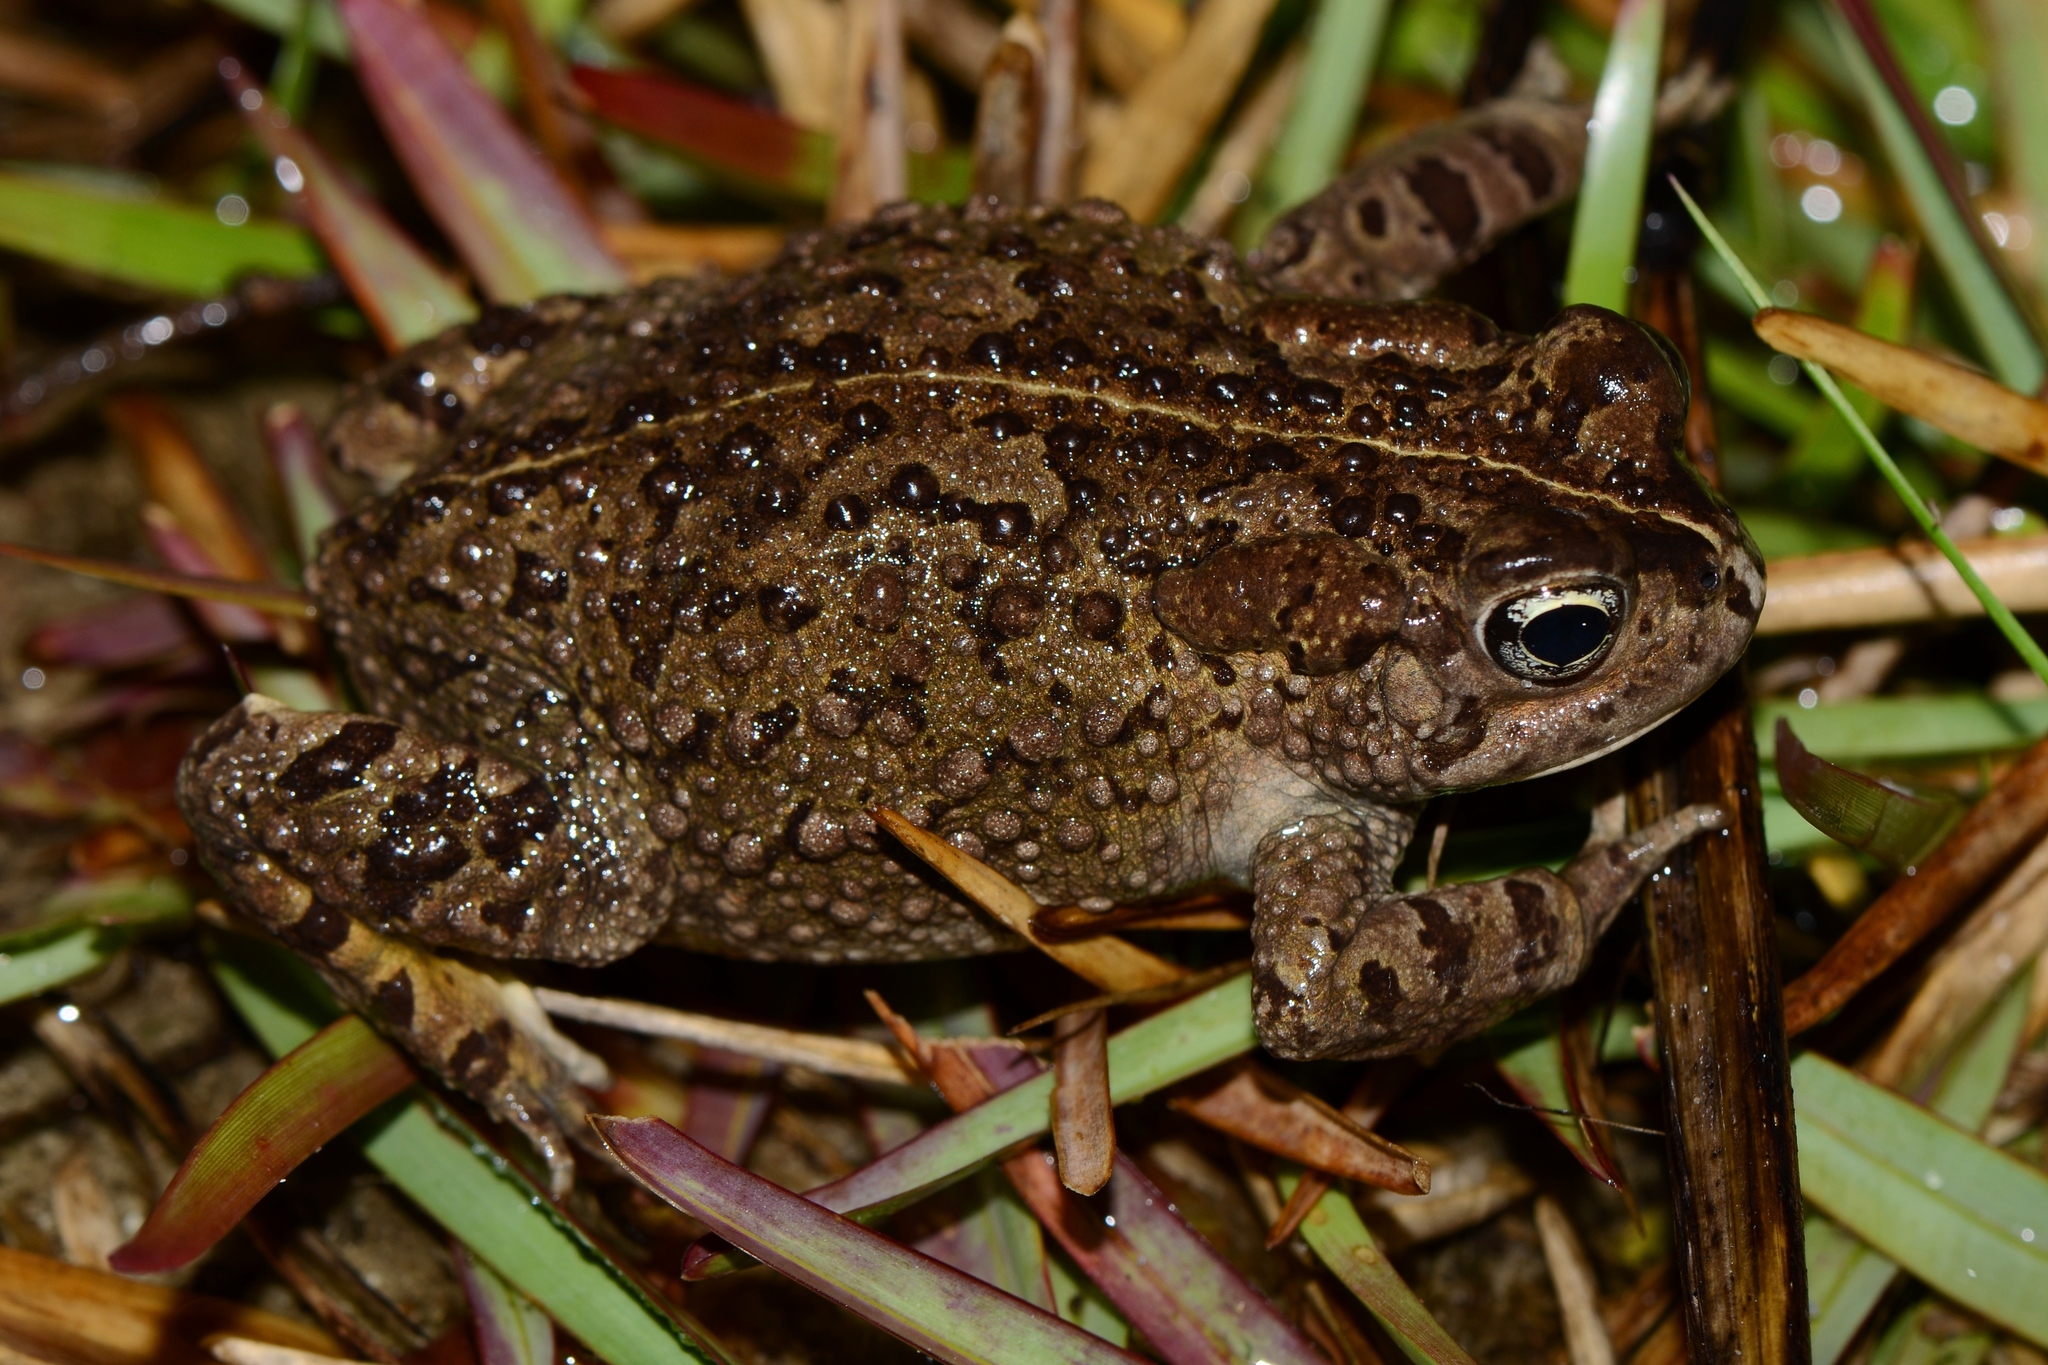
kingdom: Animalia
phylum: Chordata
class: Amphibia
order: Anura
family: Bufonidae
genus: Vandijkophrynus
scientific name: Vandijkophrynus angusticeps
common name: Sand toad
